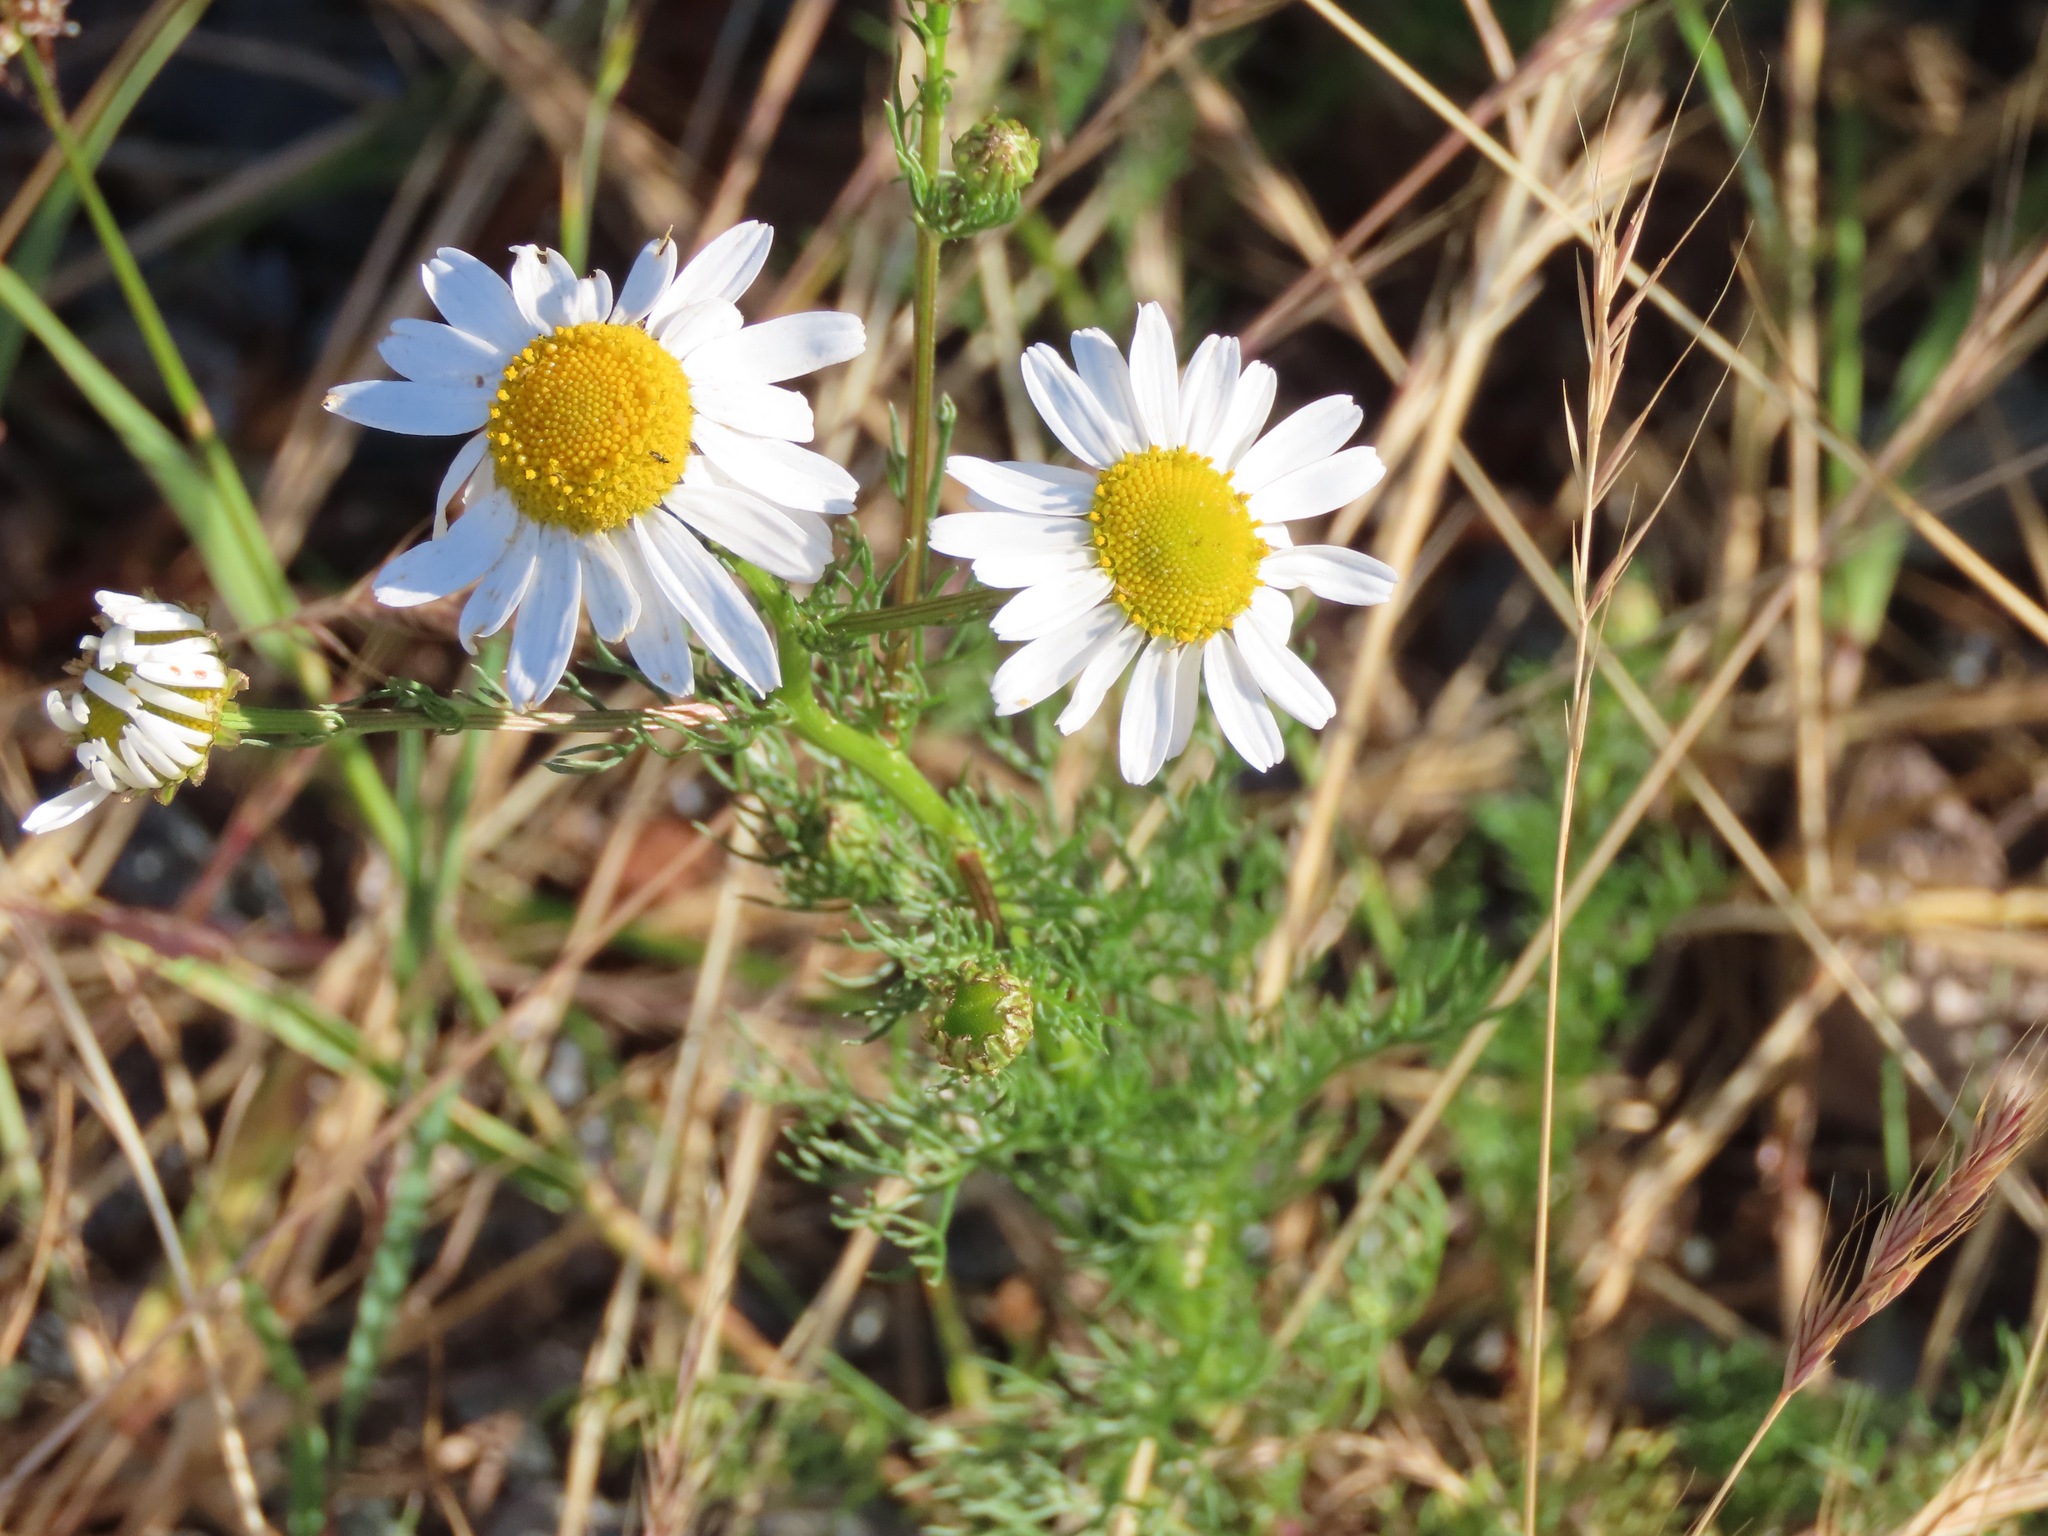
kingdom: Plantae
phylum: Tracheophyta
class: Magnoliopsida
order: Asterales
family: Asteraceae
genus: Tripleurospermum
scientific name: Tripleurospermum inodorum
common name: Scentless mayweed
